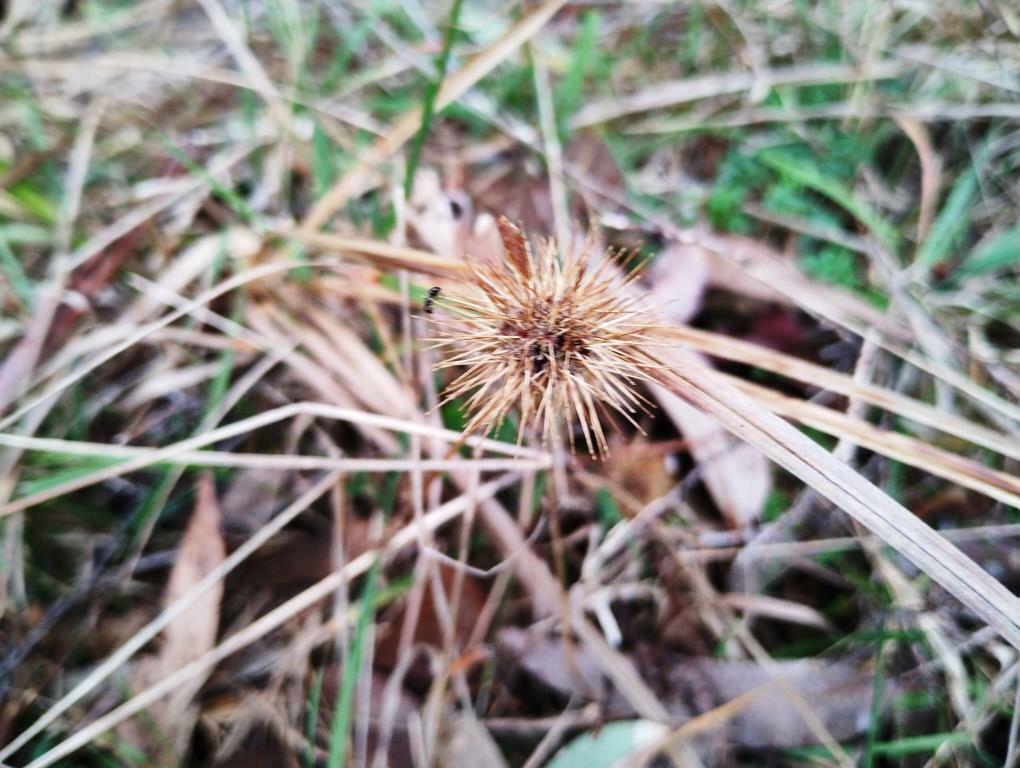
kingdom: Plantae
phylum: Tracheophyta
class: Magnoliopsida
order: Rosales
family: Rosaceae
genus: Acaena
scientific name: Acaena novae-zelandiae
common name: Pirri-pirri-bur
